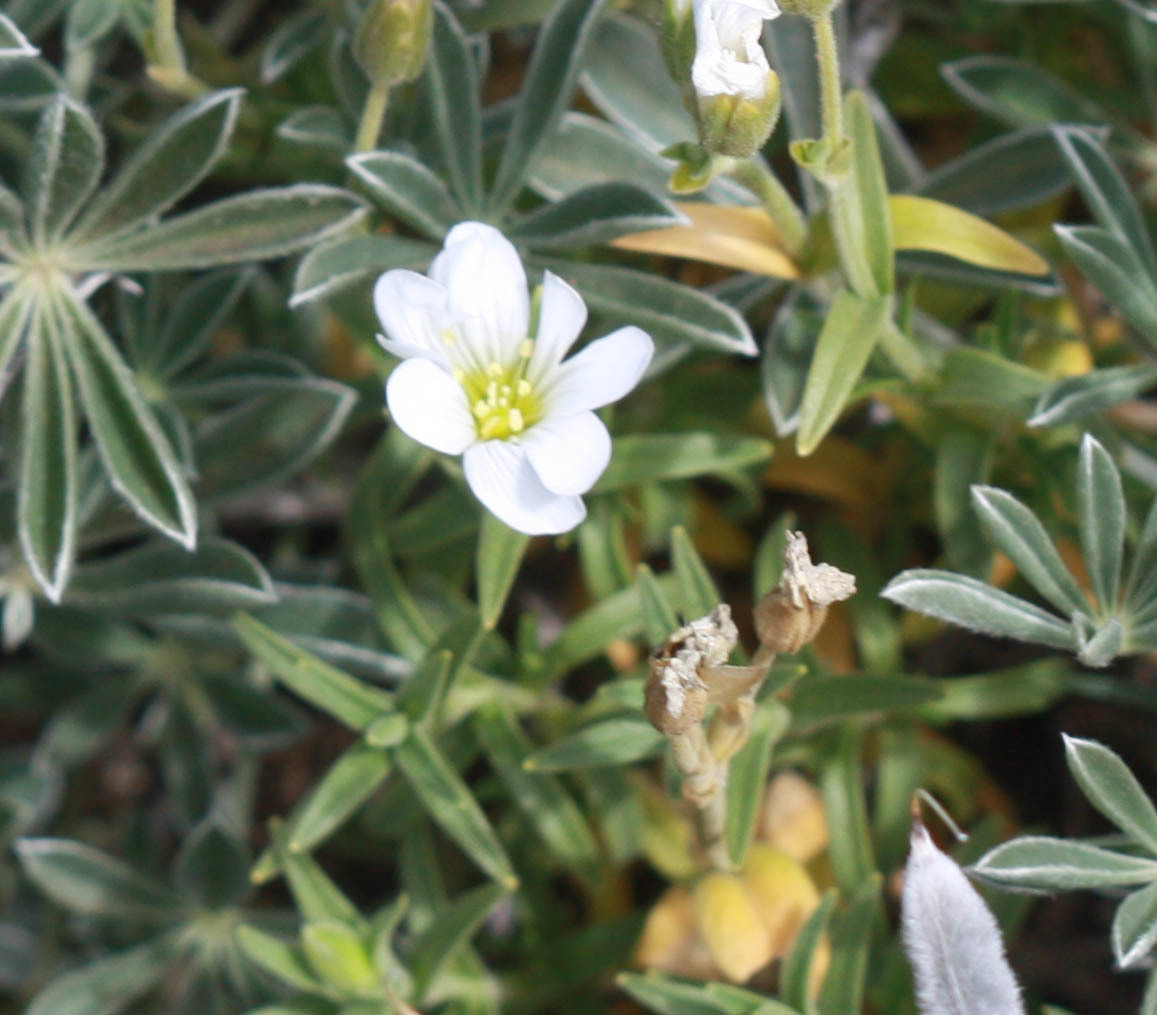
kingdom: Plantae
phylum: Tracheophyta
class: Magnoliopsida
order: Caryophyllales
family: Caryophyllaceae
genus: Cerastium
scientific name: Cerastium arvense
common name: Field mouse-ear
